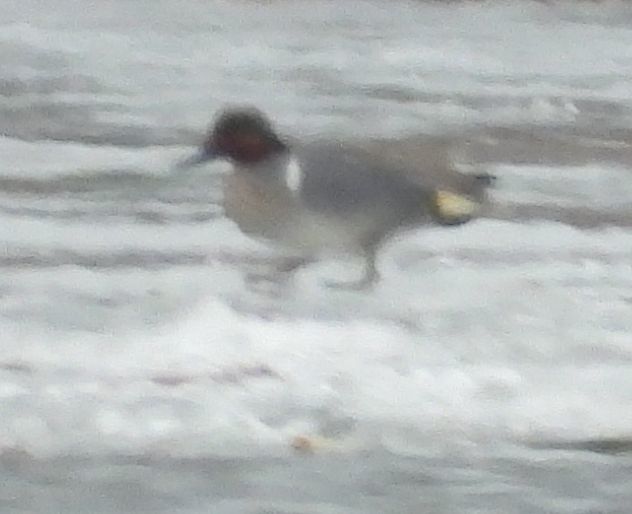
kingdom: Animalia
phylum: Chordata
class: Aves
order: Anseriformes
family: Anatidae
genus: Anas
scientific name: Anas crecca
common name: Eurasian teal
